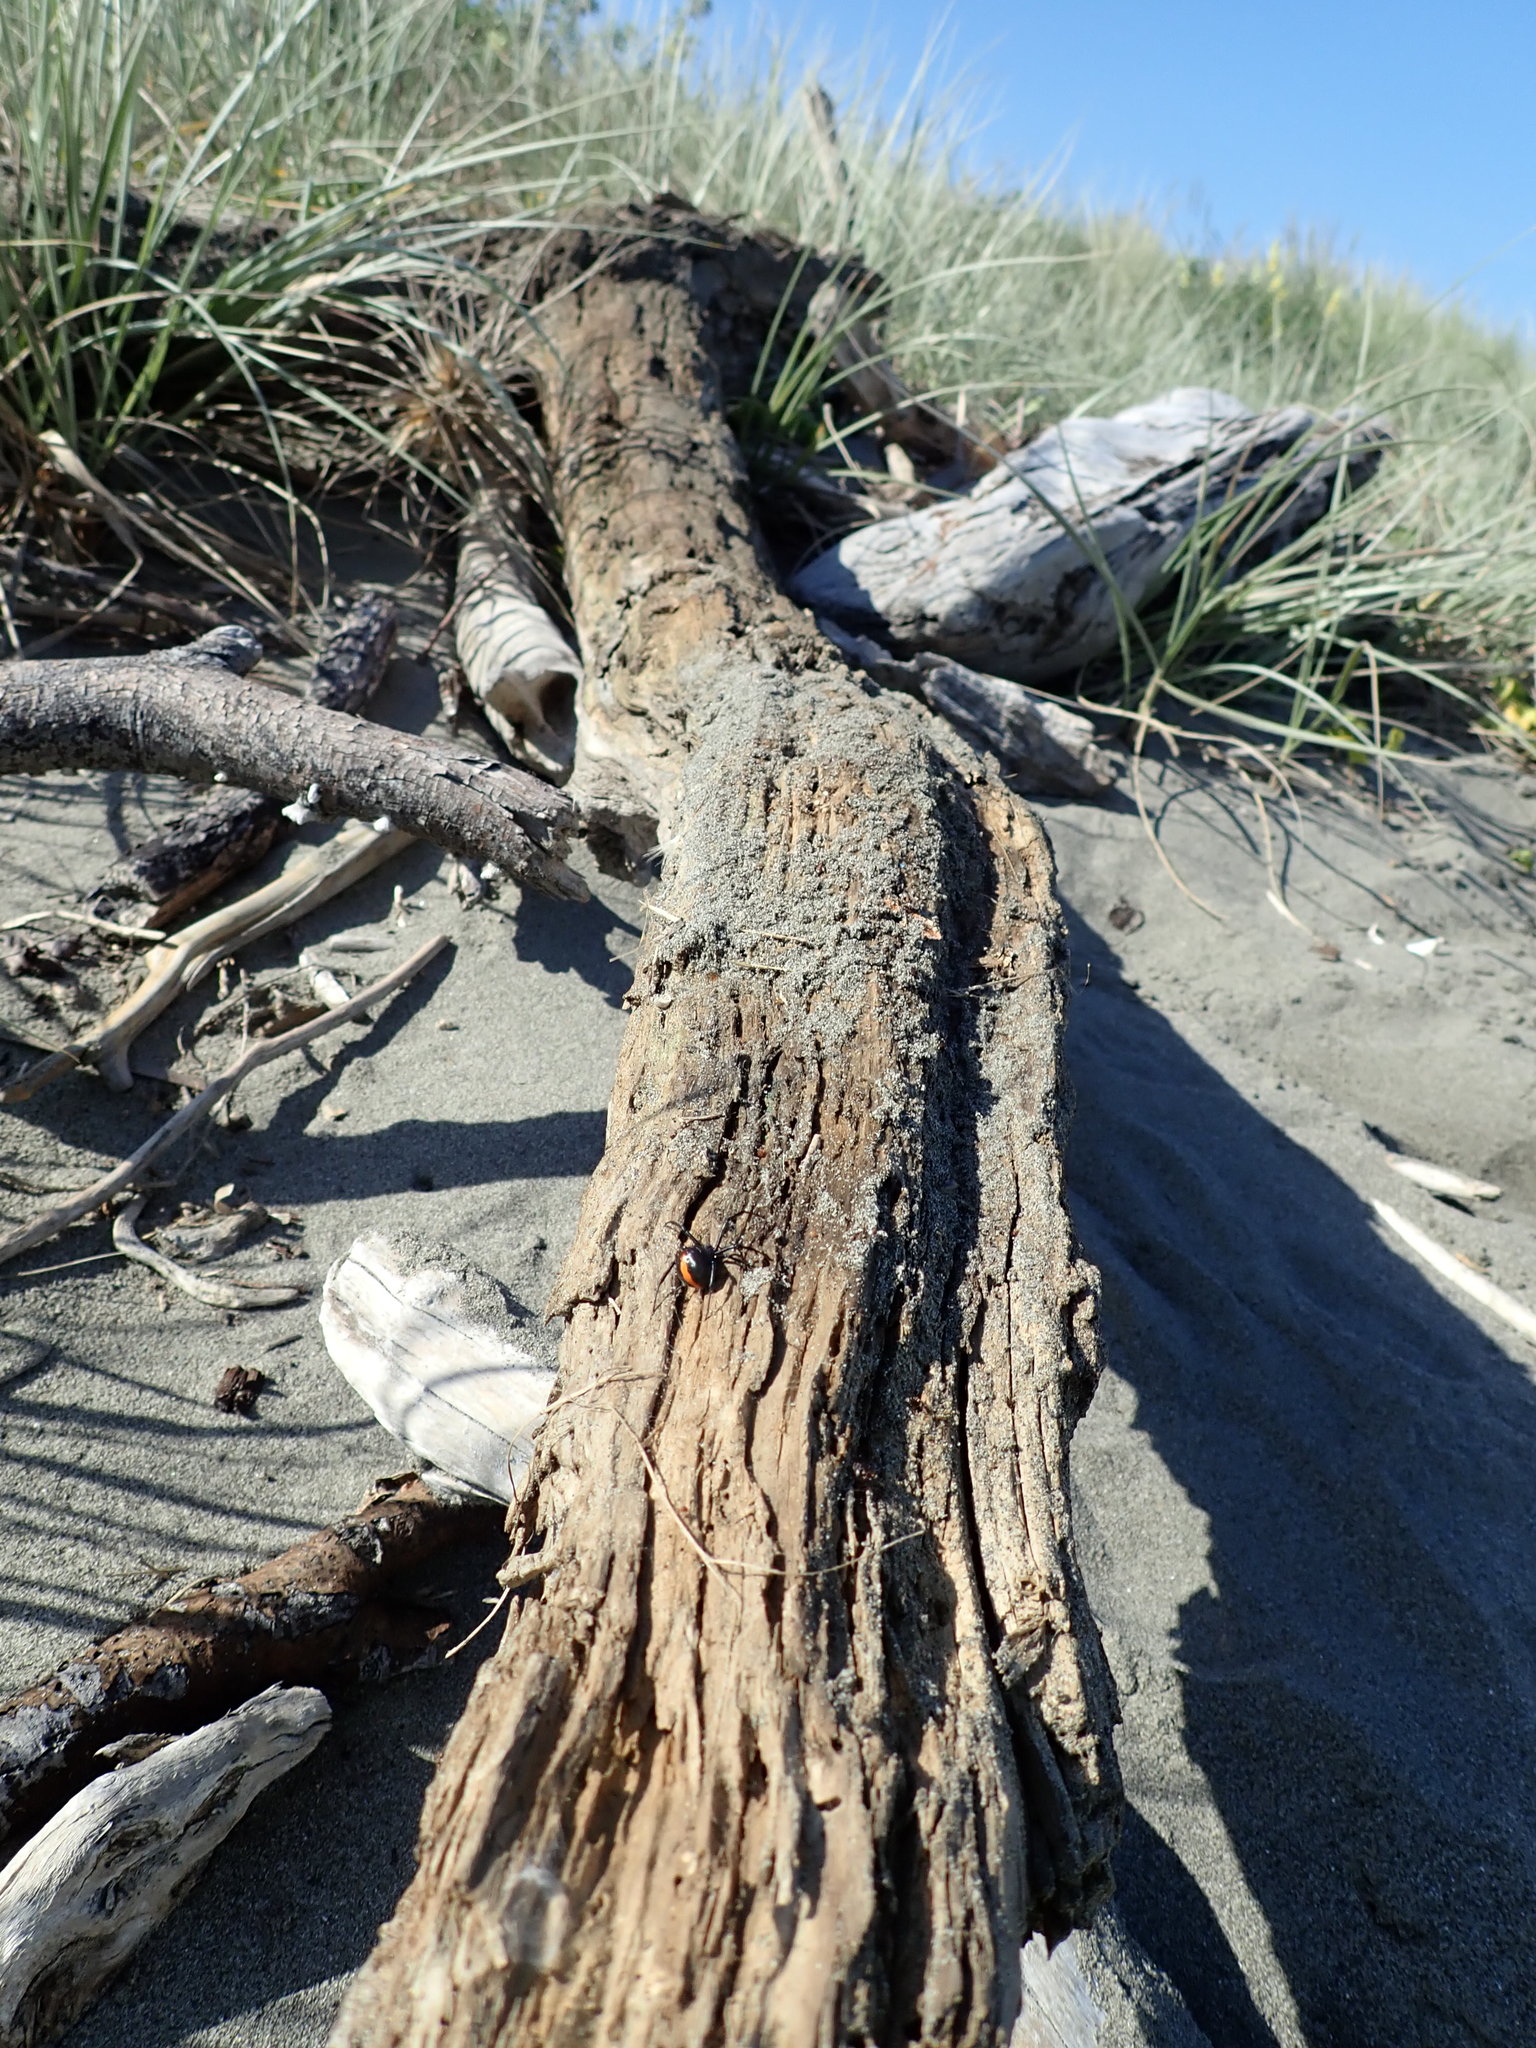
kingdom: Animalia
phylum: Arthropoda
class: Arachnida
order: Araneae
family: Theridiidae
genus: Latrodectus
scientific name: Latrodectus katipo
